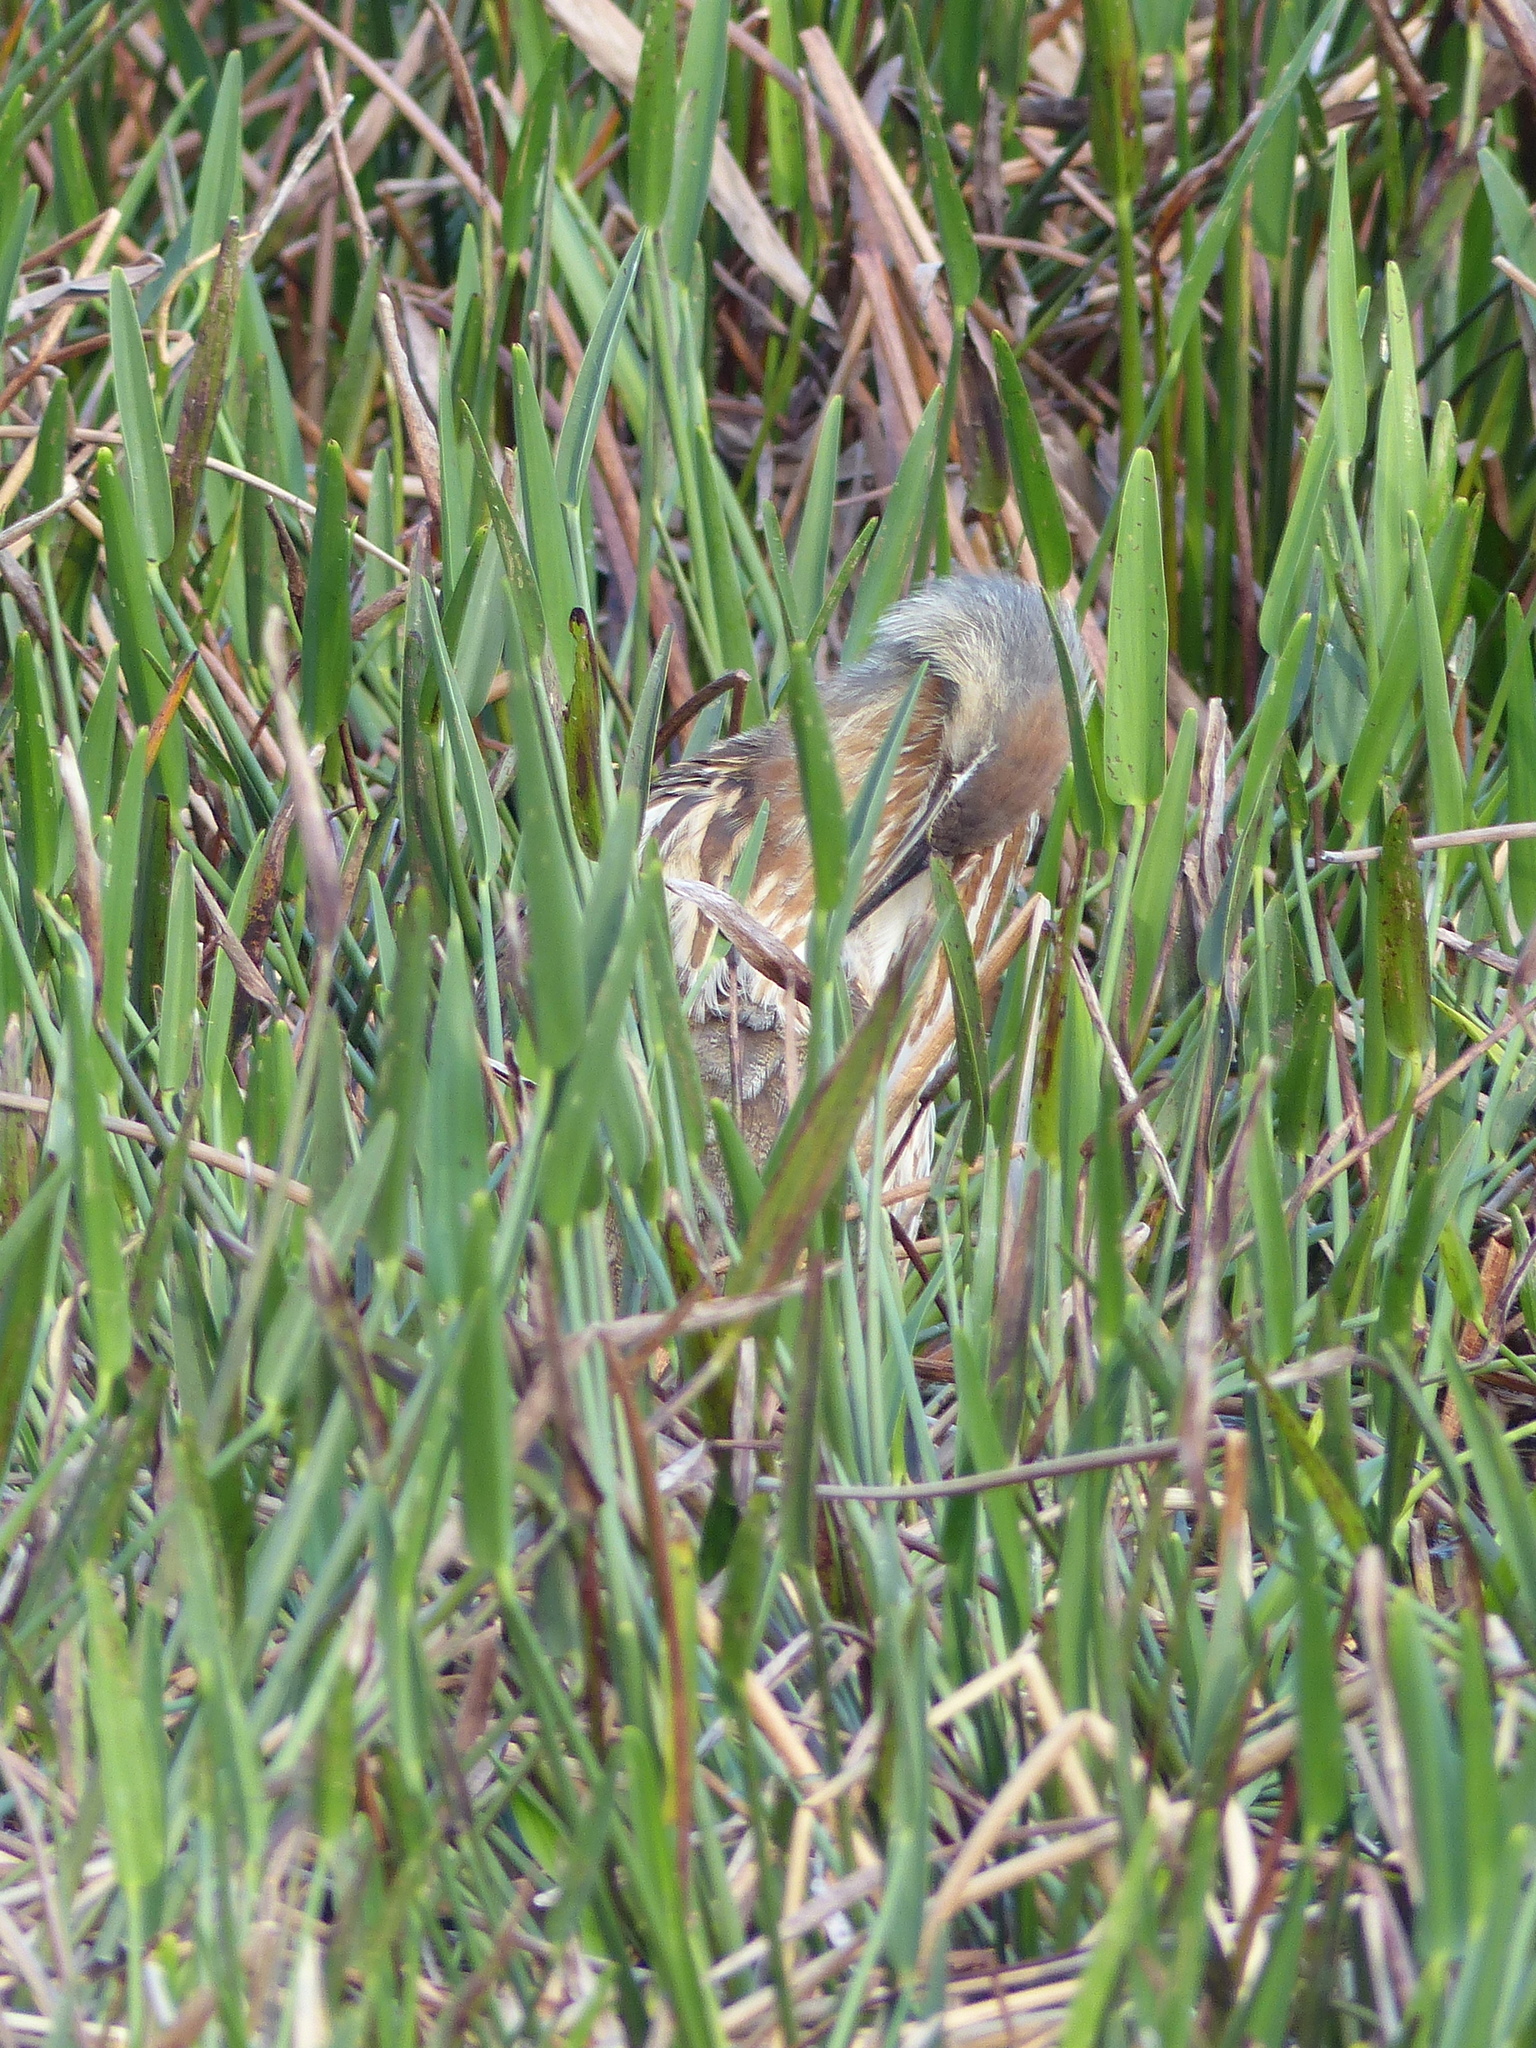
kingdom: Animalia
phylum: Chordata
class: Aves
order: Pelecaniformes
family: Ardeidae
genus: Botaurus
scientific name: Botaurus lentiginosus
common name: American bittern
